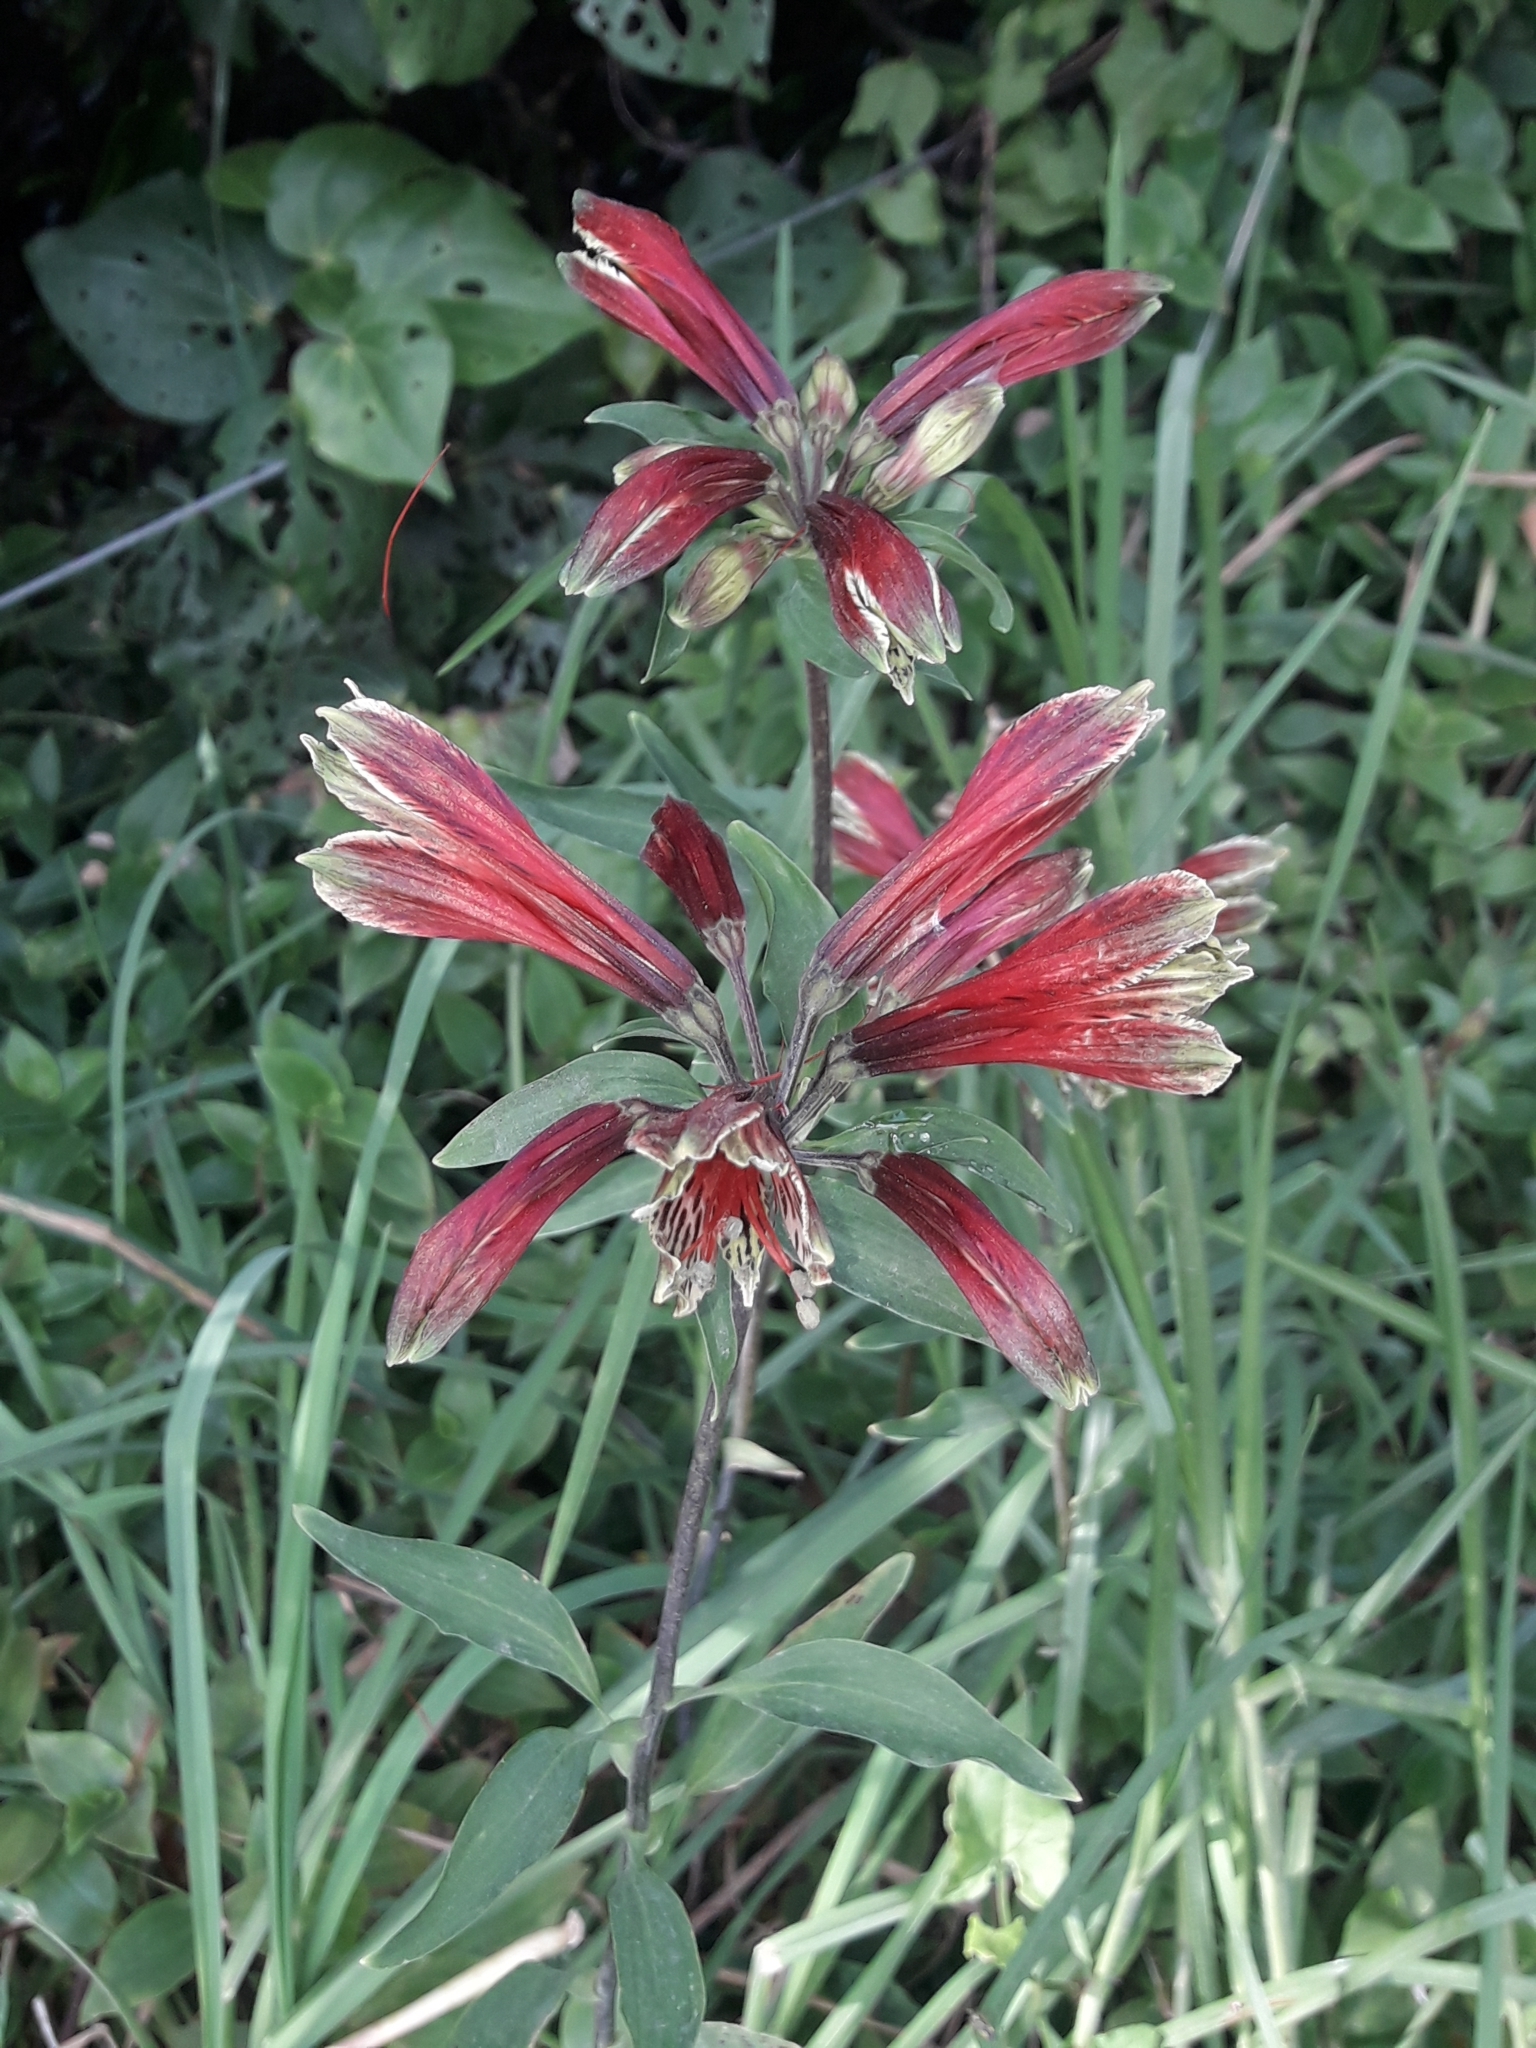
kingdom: Plantae
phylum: Tracheophyta
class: Liliopsida
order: Liliales
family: Alstroemeriaceae
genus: Alstroemeria
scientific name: Alstroemeria psittacina
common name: Peruvian-lily
